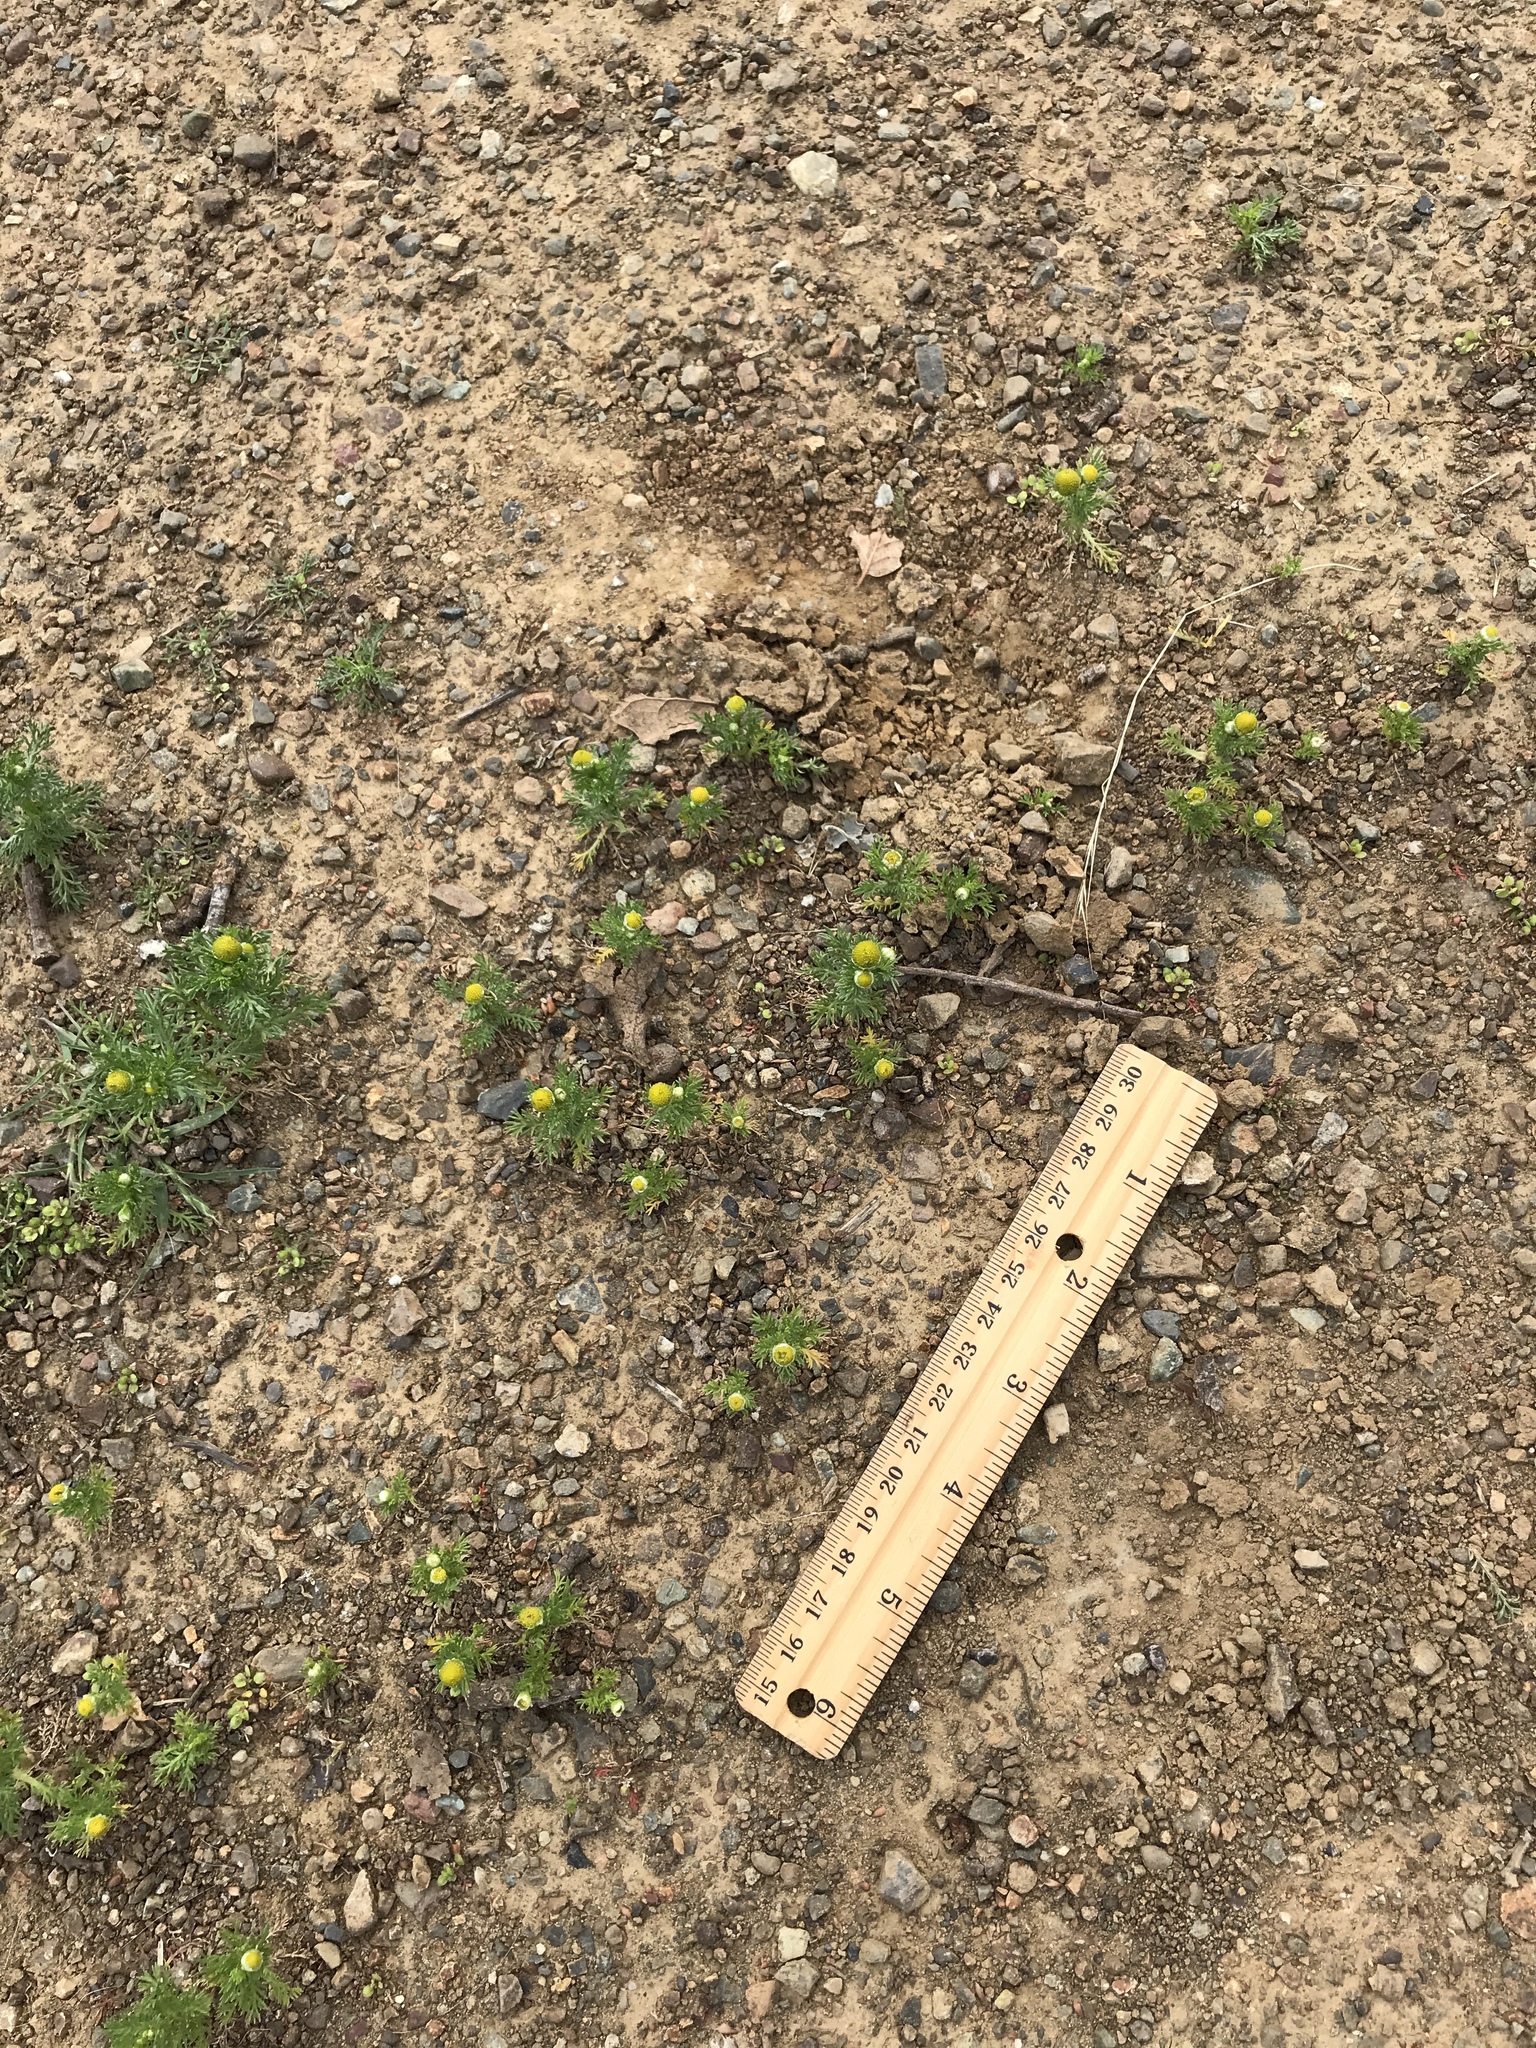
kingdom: Plantae
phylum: Tracheophyta
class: Magnoliopsida
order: Asterales
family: Asteraceae
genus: Matricaria
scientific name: Matricaria discoidea
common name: Disc mayweed
